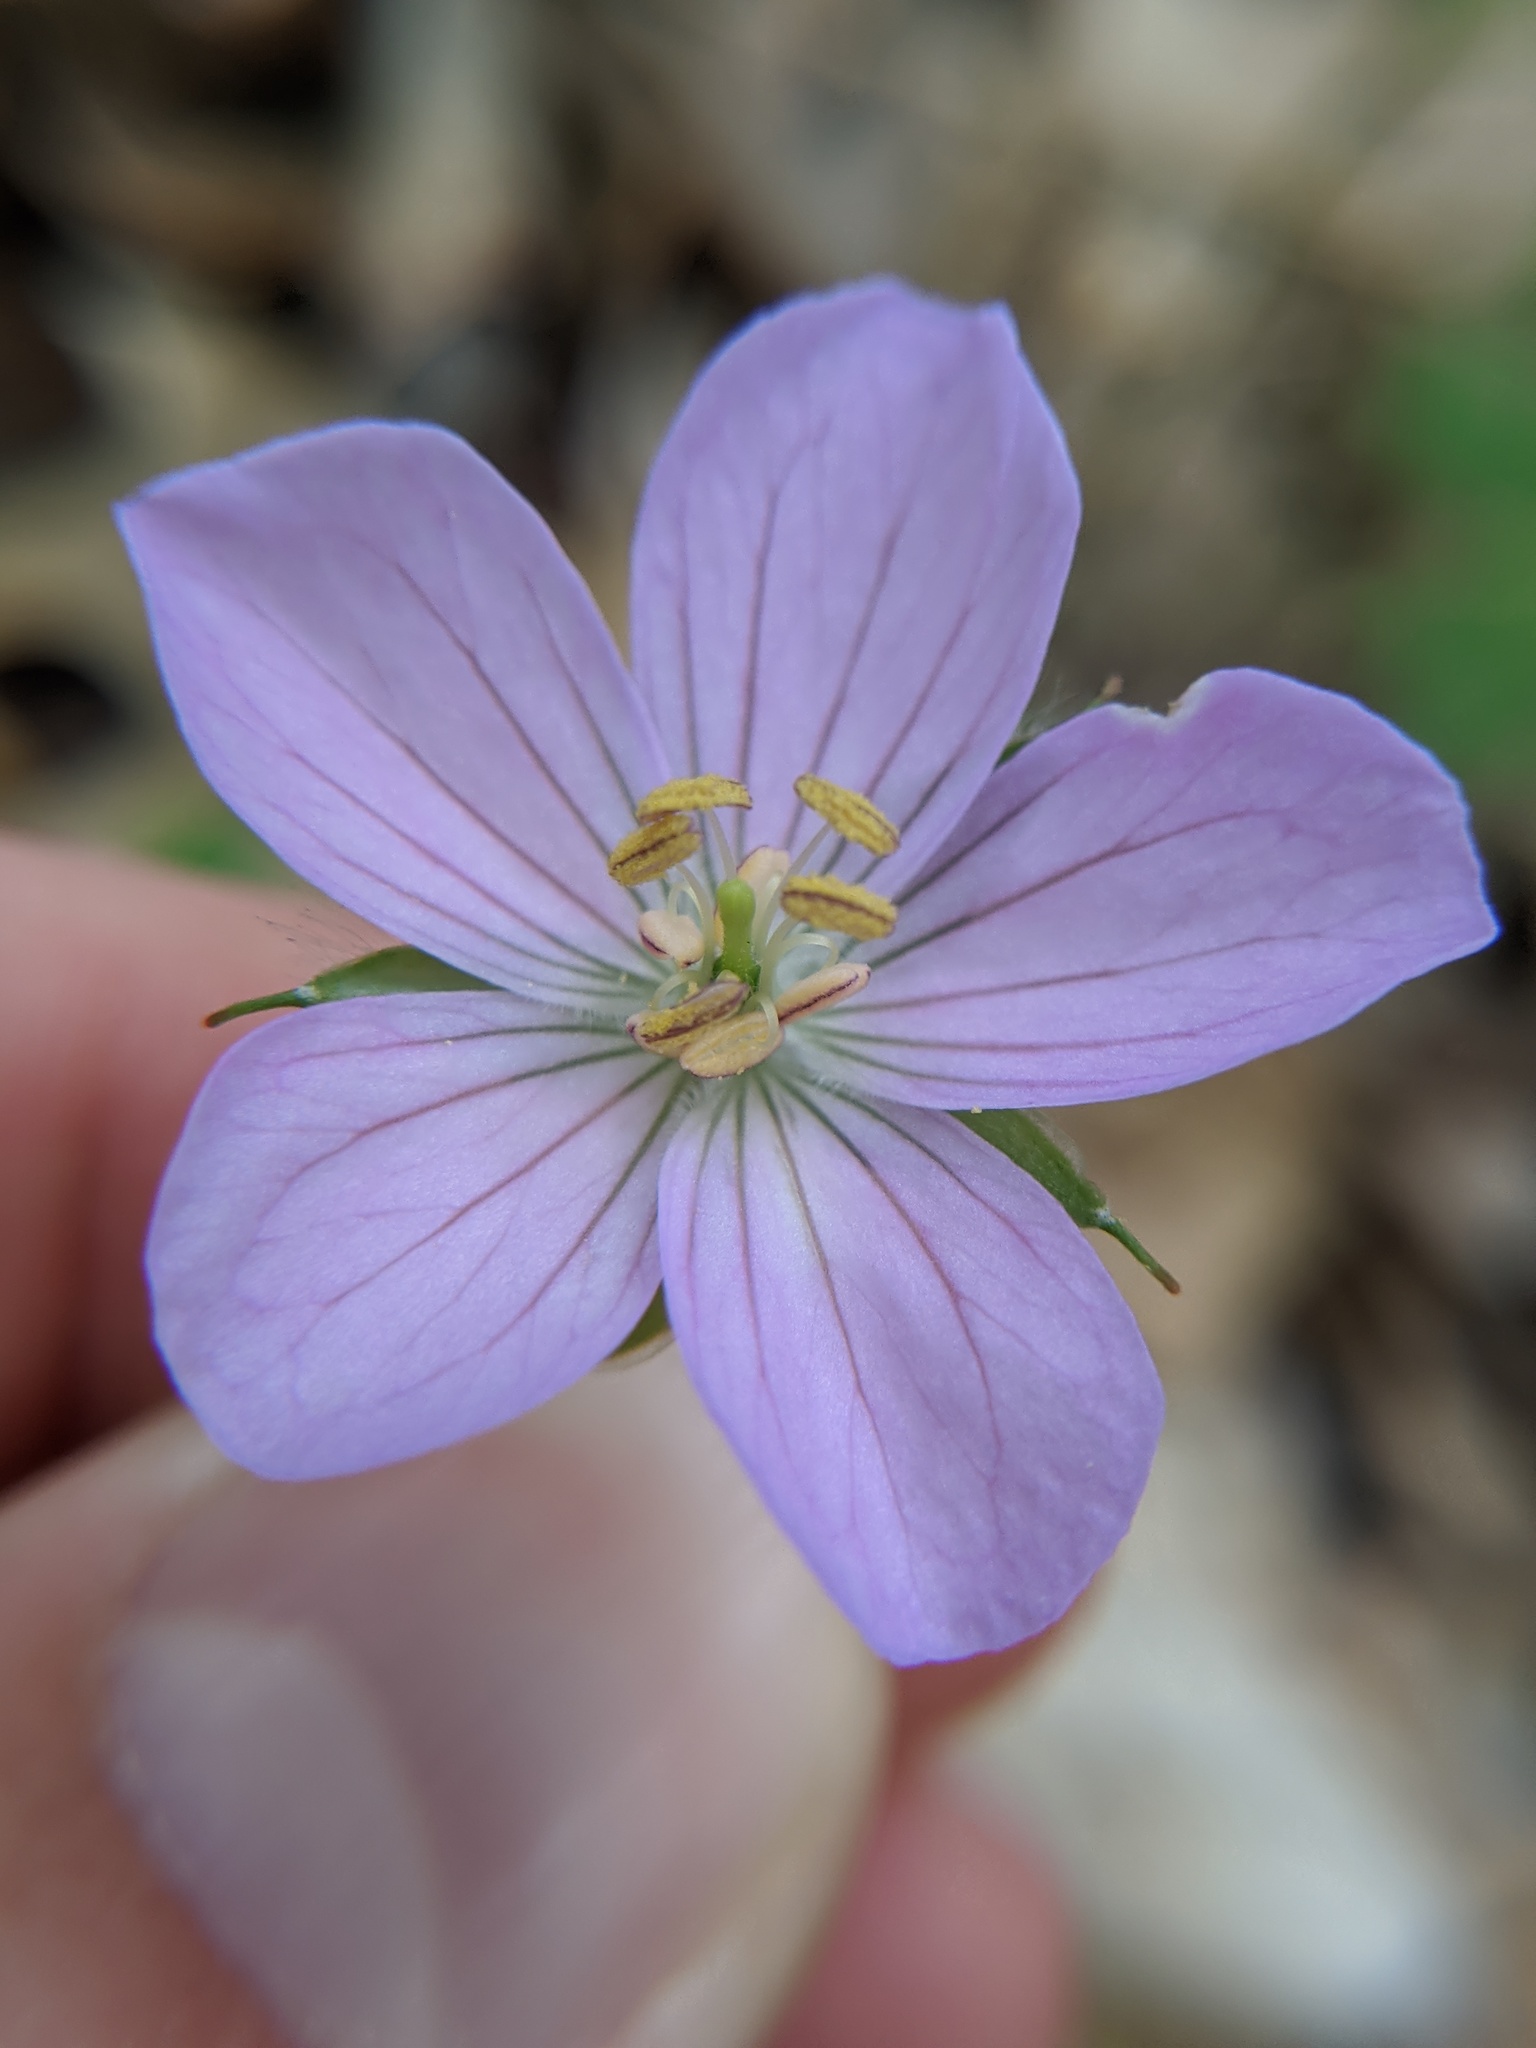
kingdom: Plantae
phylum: Tracheophyta
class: Magnoliopsida
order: Geraniales
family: Geraniaceae
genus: Geranium
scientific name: Geranium maculatum
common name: Spotted geranium
